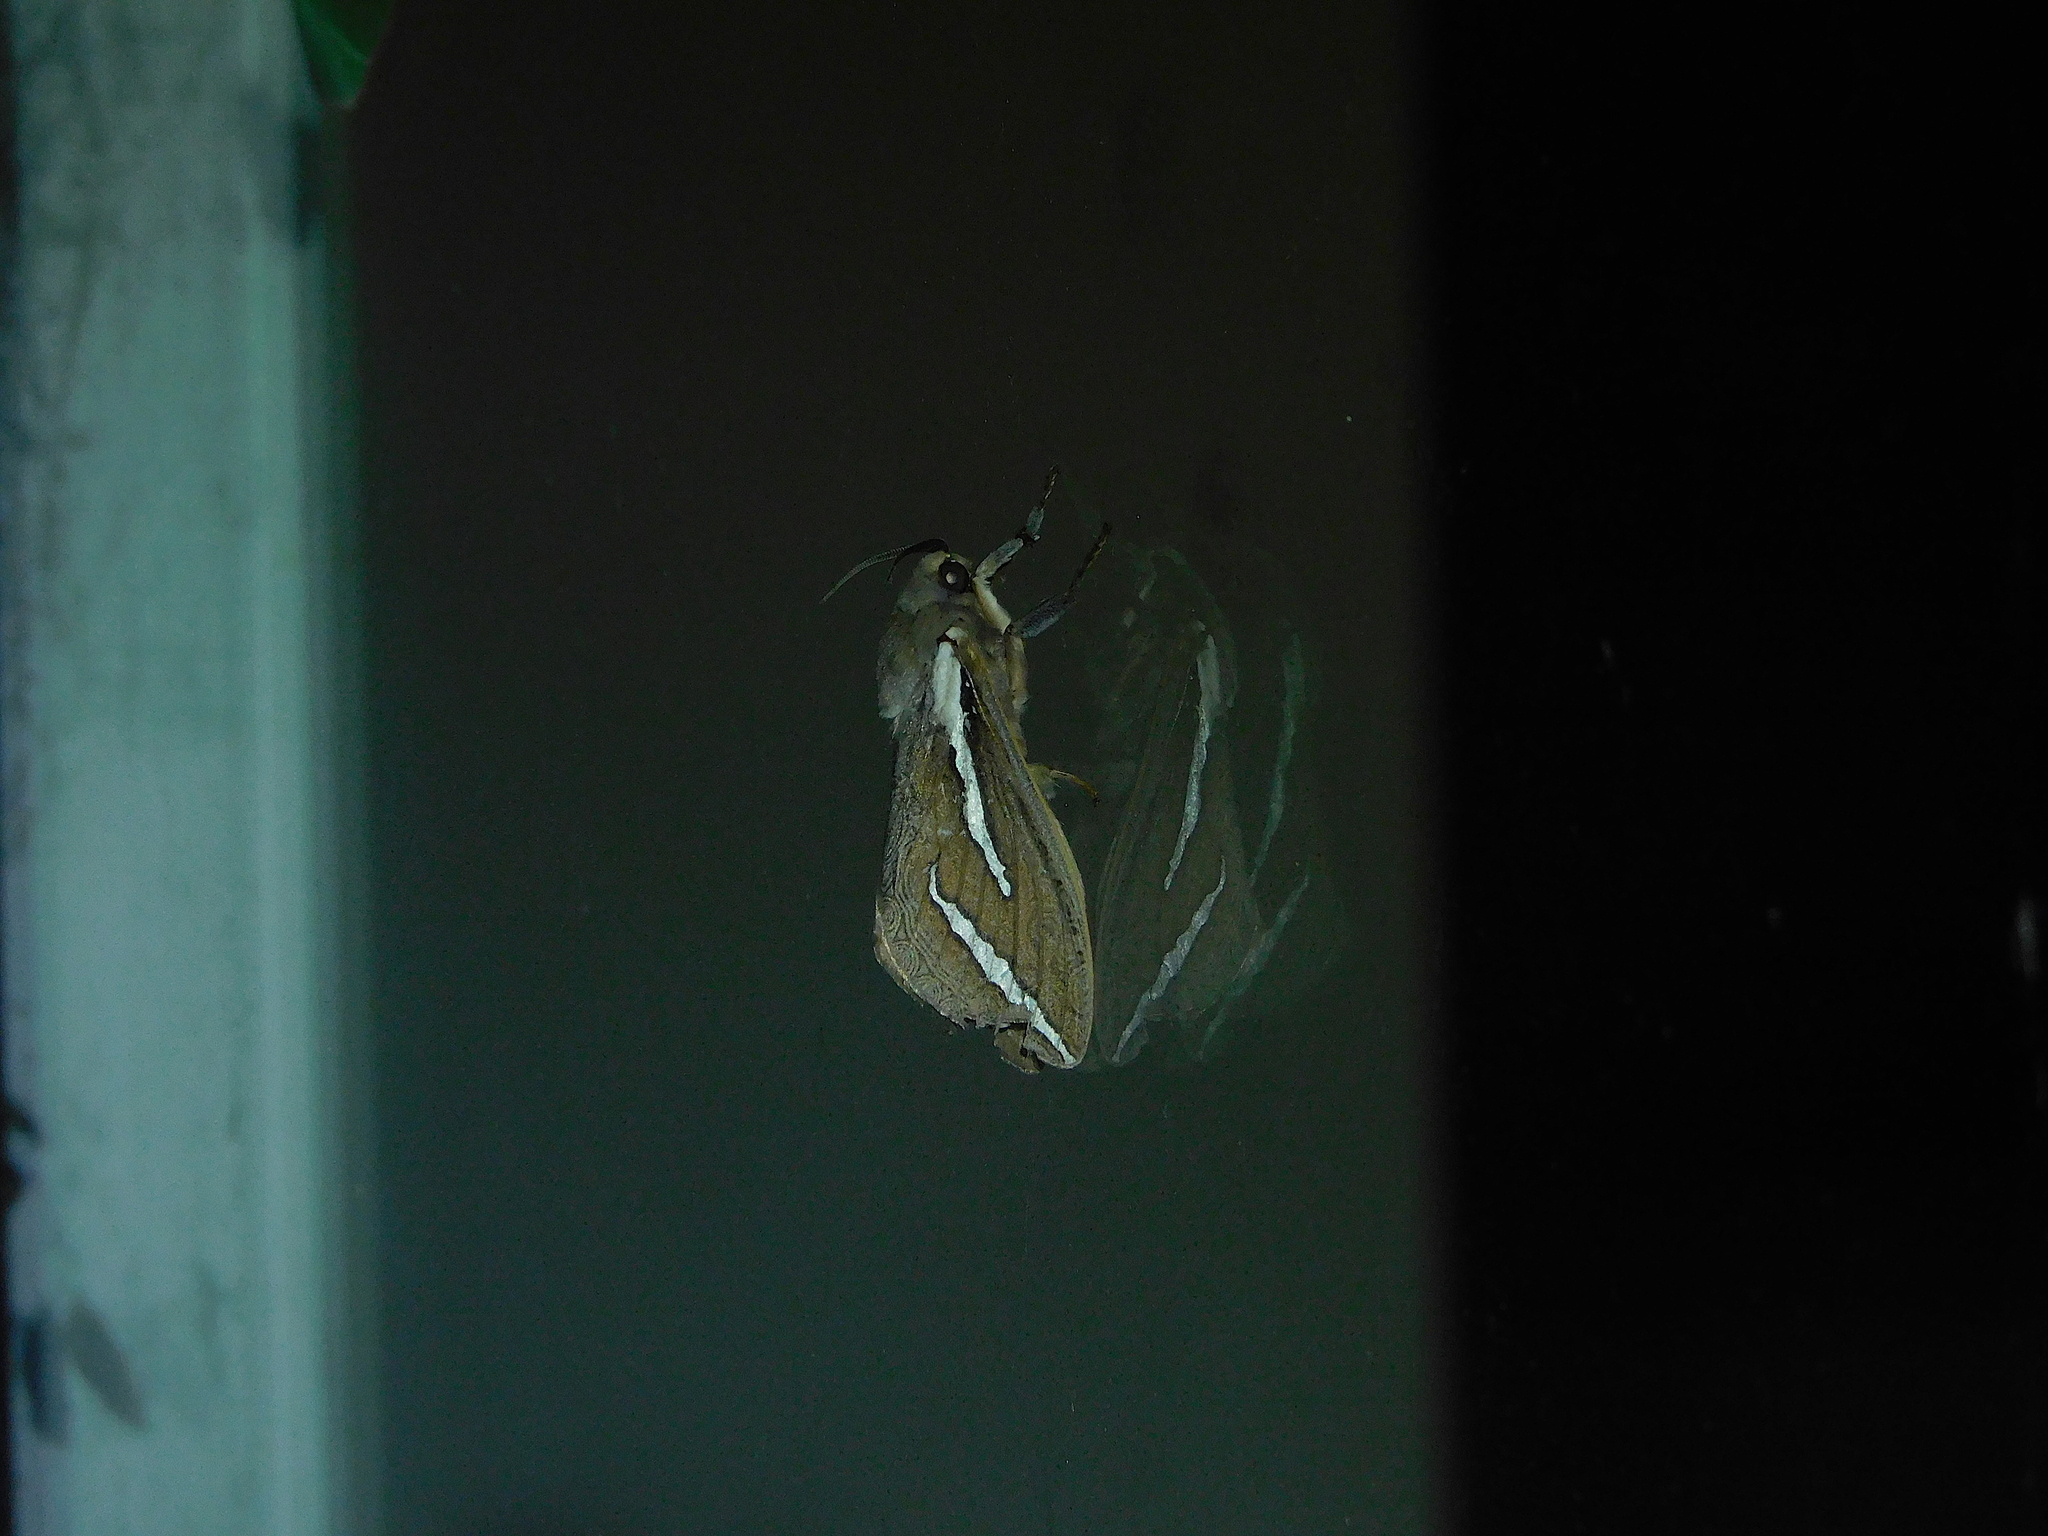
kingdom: Animalia
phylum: Arthropoda
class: Insecta
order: Lepidoptera
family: Hepialidae
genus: Abantiades
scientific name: Abantiades latipennis
